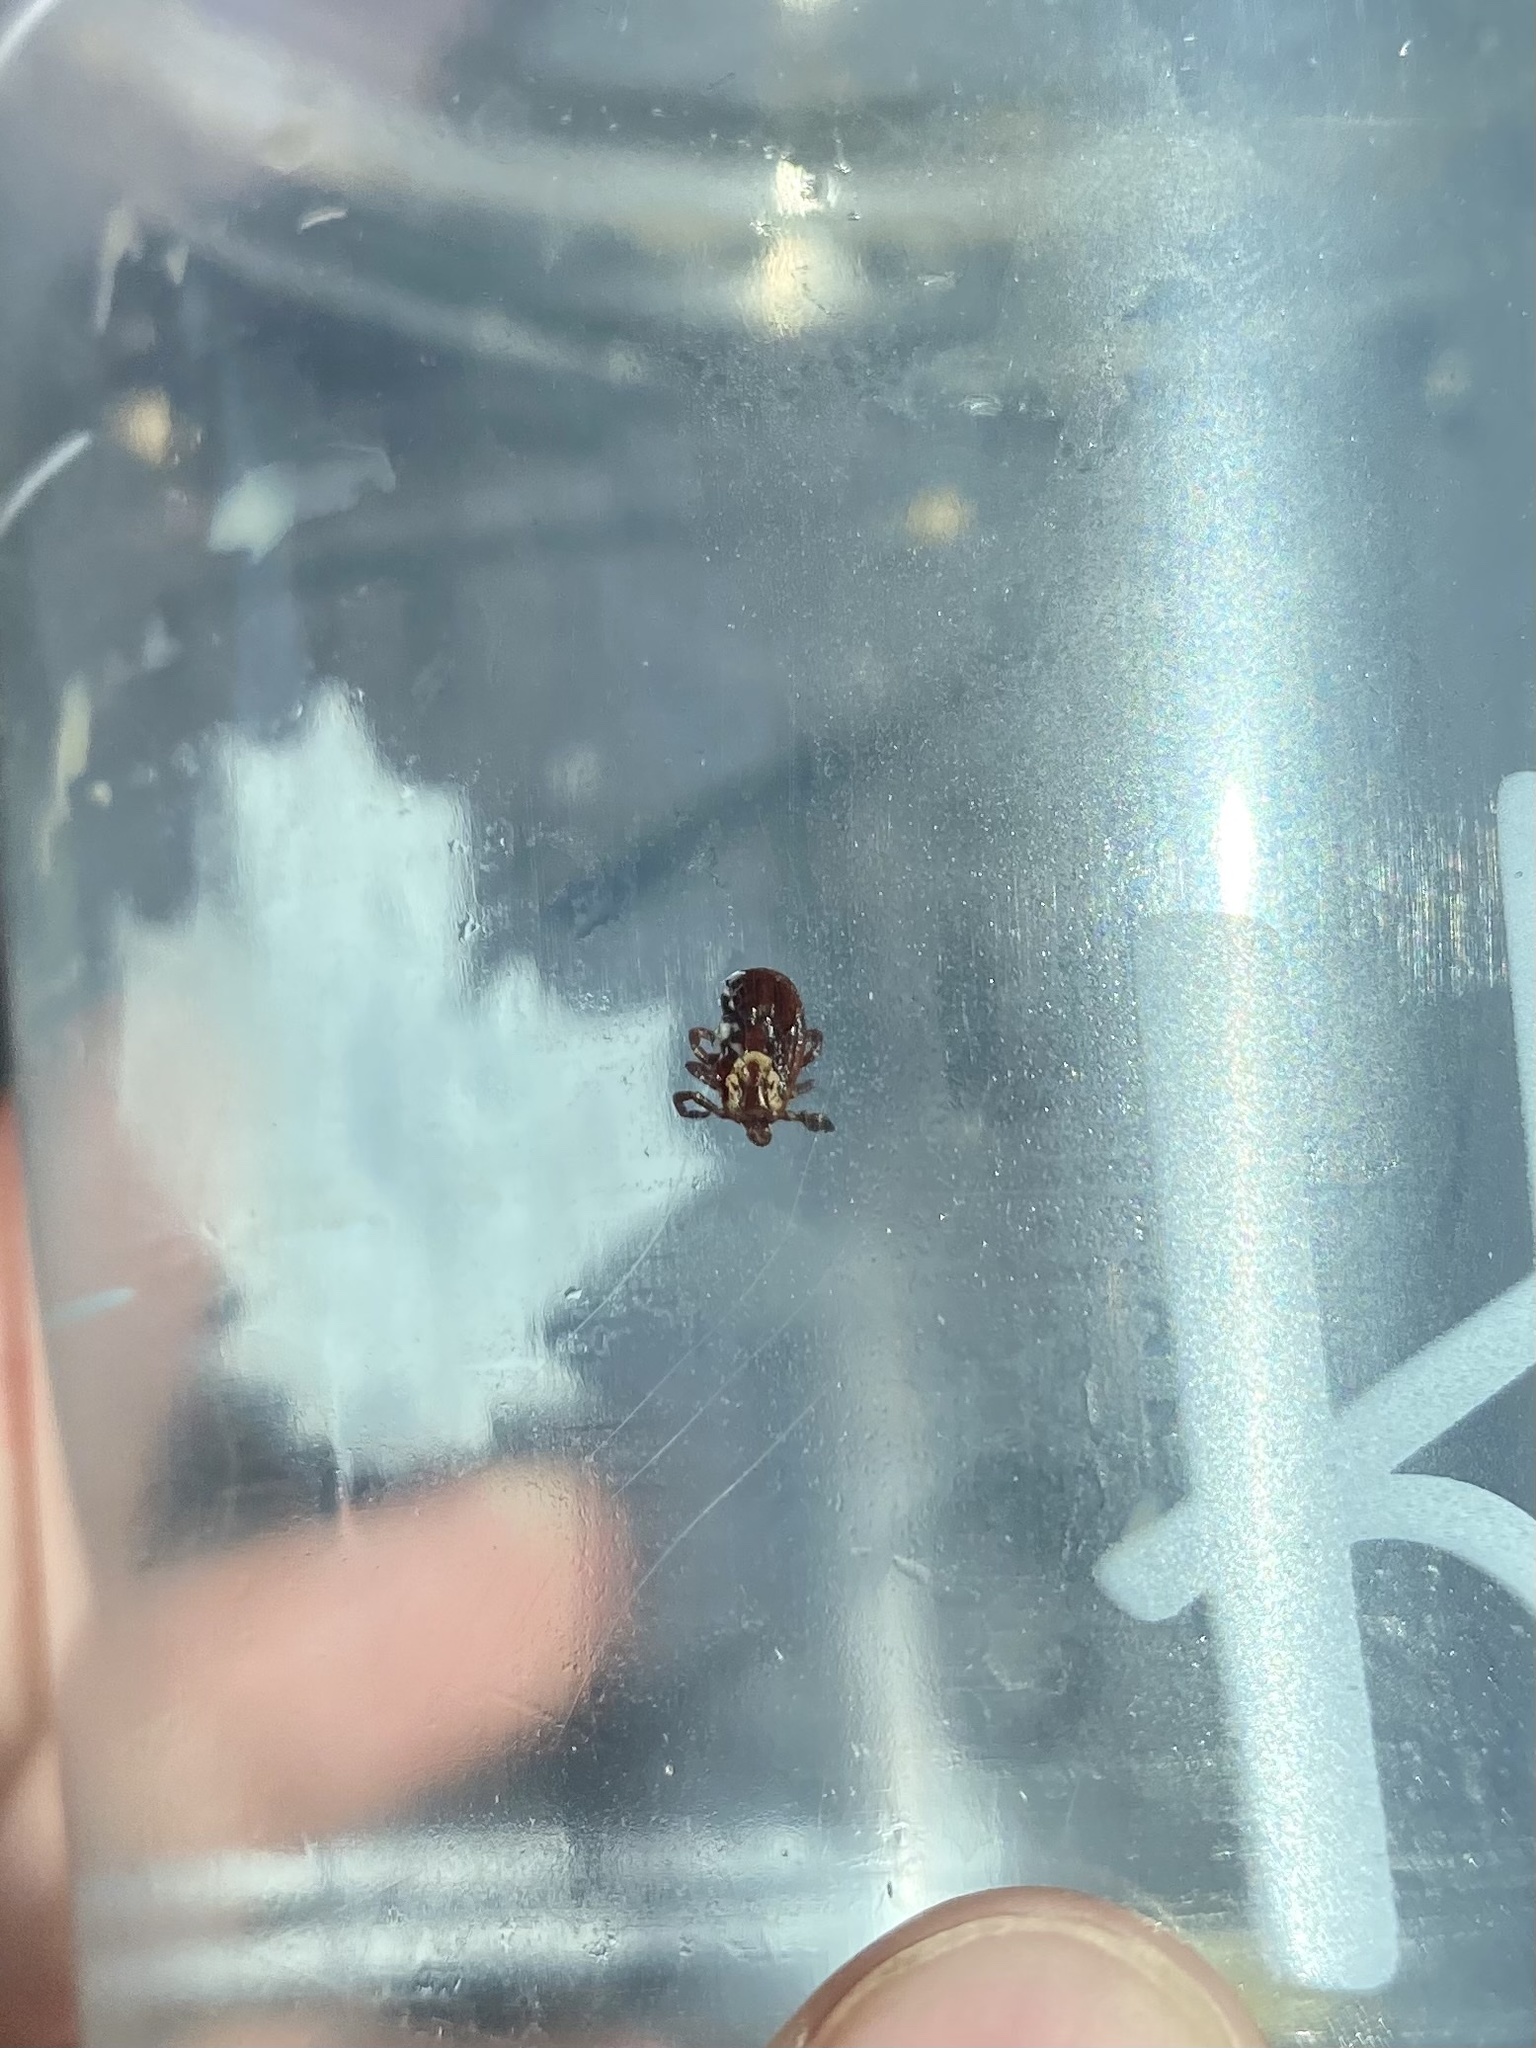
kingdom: Animalia
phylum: Arthropoda
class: Arachnida
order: Ixodida
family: Ixodidae
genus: Dermacentor
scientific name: Dermacentor variabilis
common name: American dog tick
